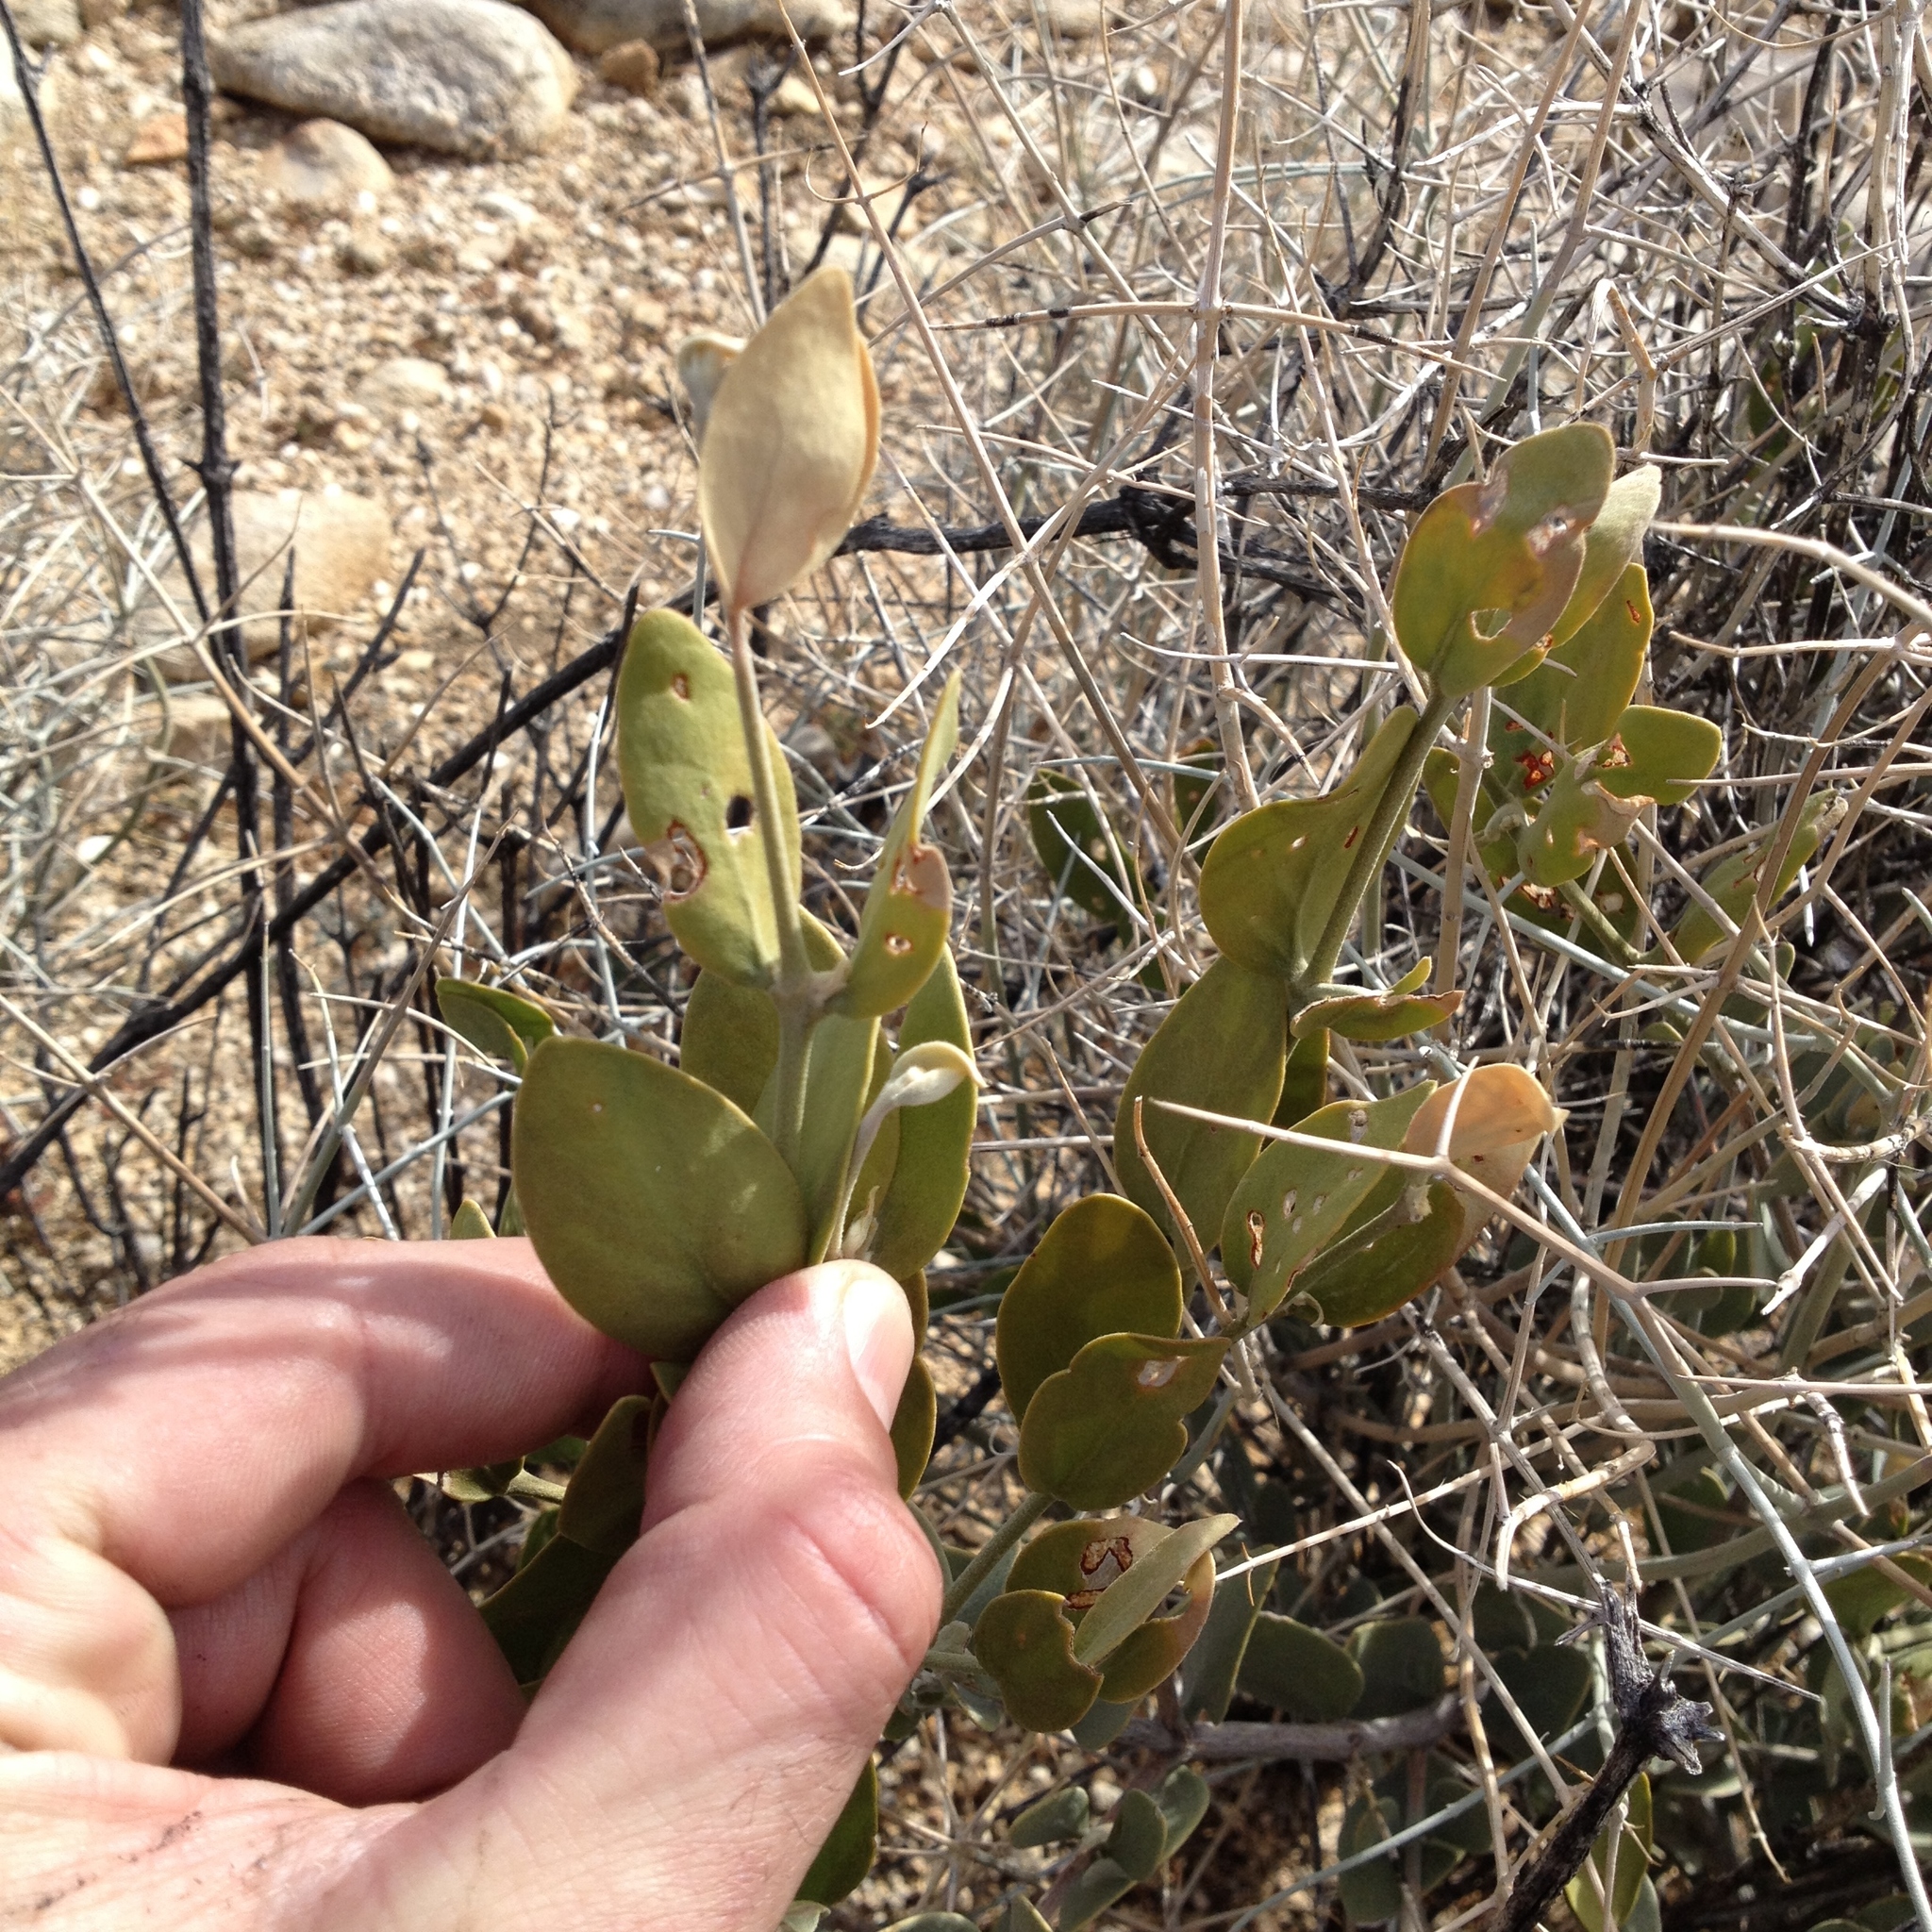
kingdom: Plantae
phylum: Tracheophyta
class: Magnoliopsida
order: Caryophyllales
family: Simmondsiaceae
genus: Simmondsia
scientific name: Simmondsia chinensis
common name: Jojoba
